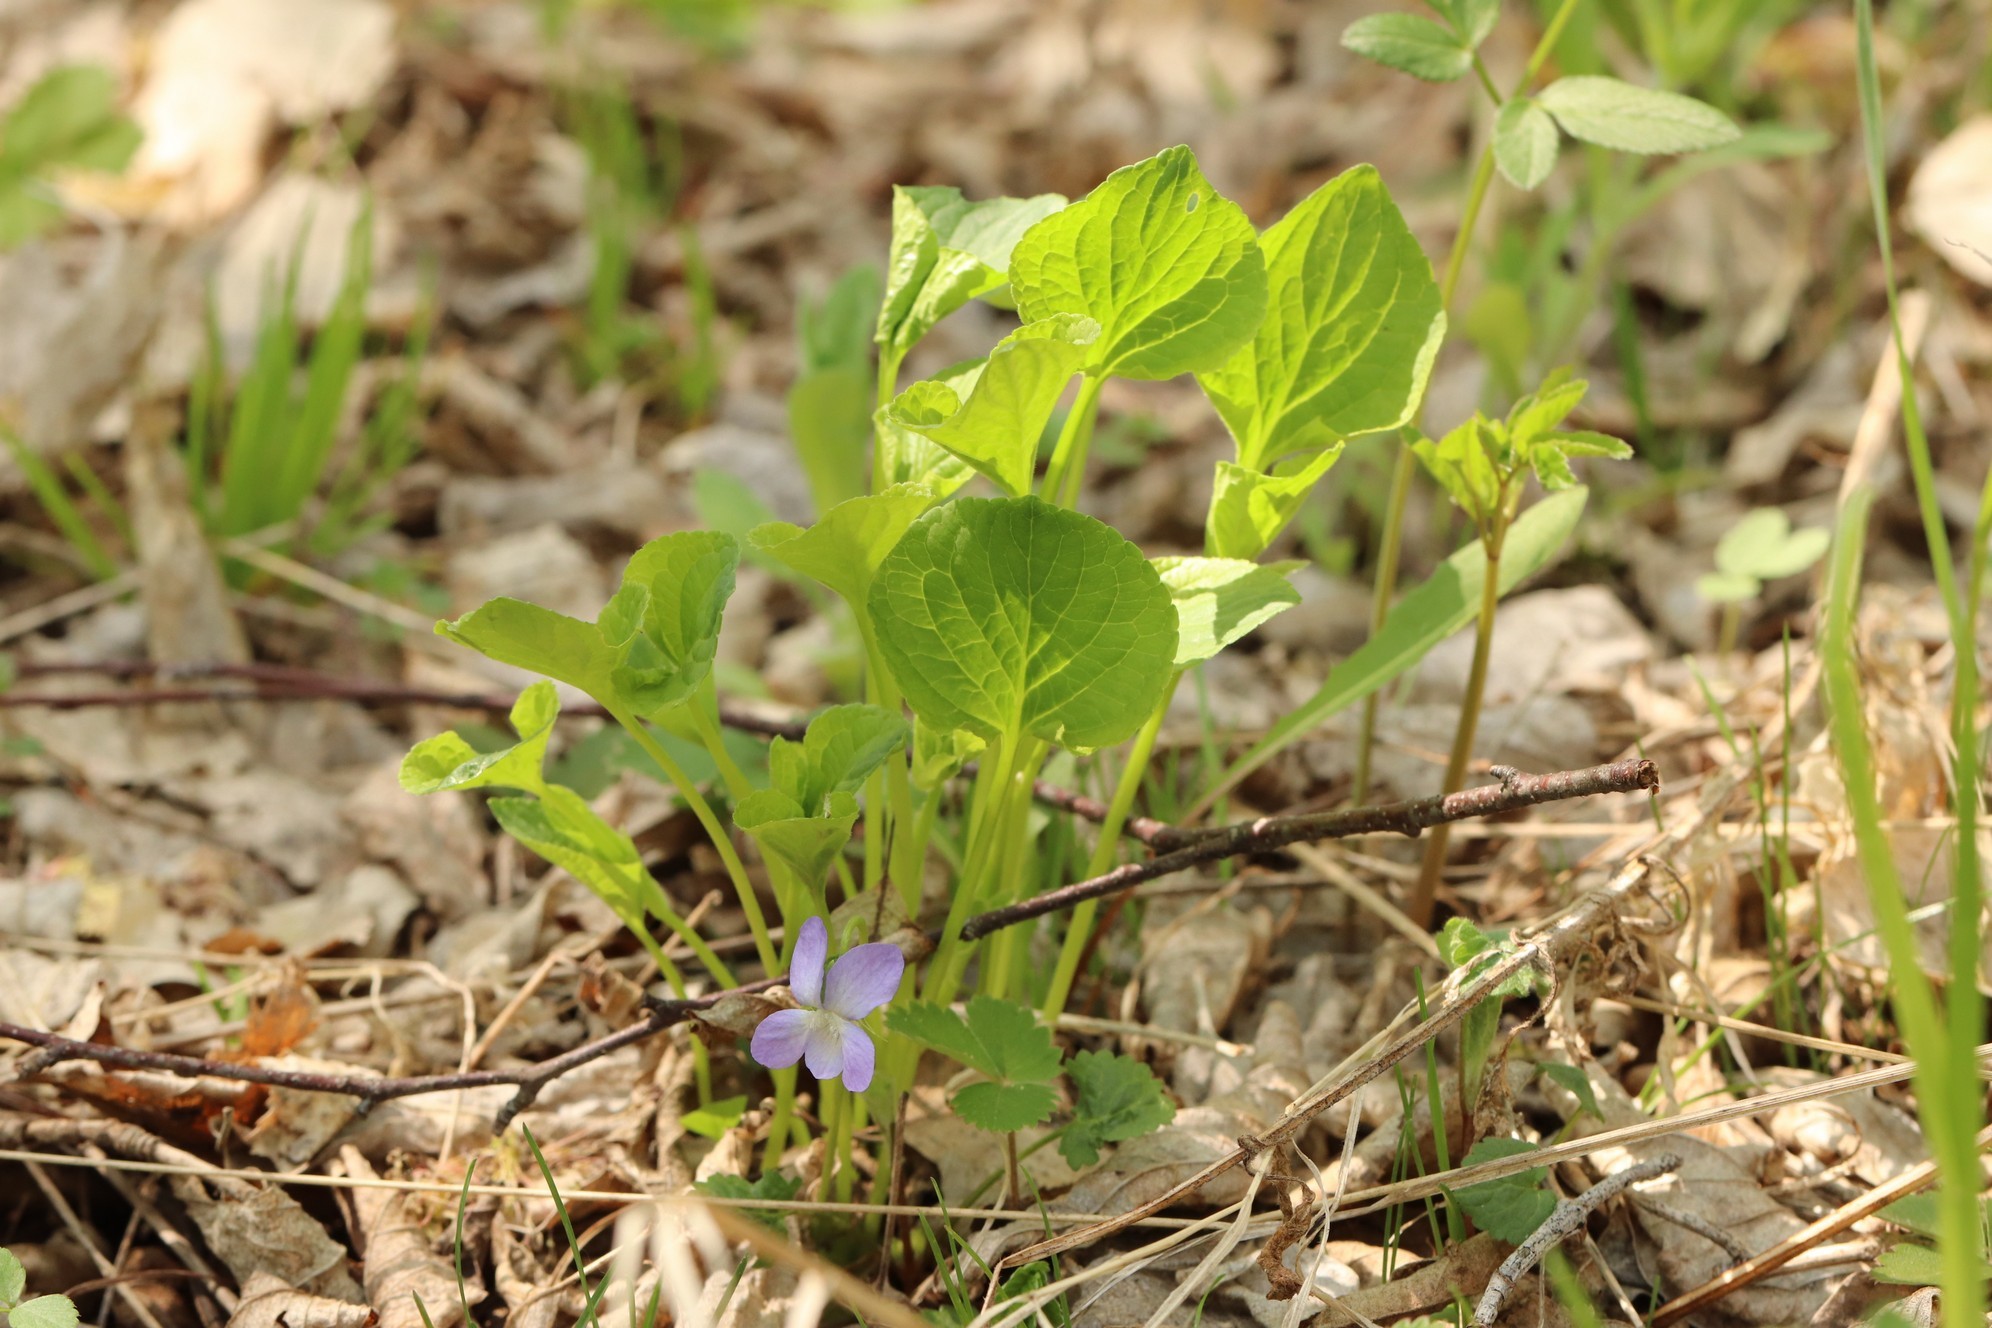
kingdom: Plantae
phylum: Tracheophyta
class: Magnoliopsida
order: Malpighiales
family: Violaceae
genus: Viola
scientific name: Viola mirabilis
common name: Wonder violet
